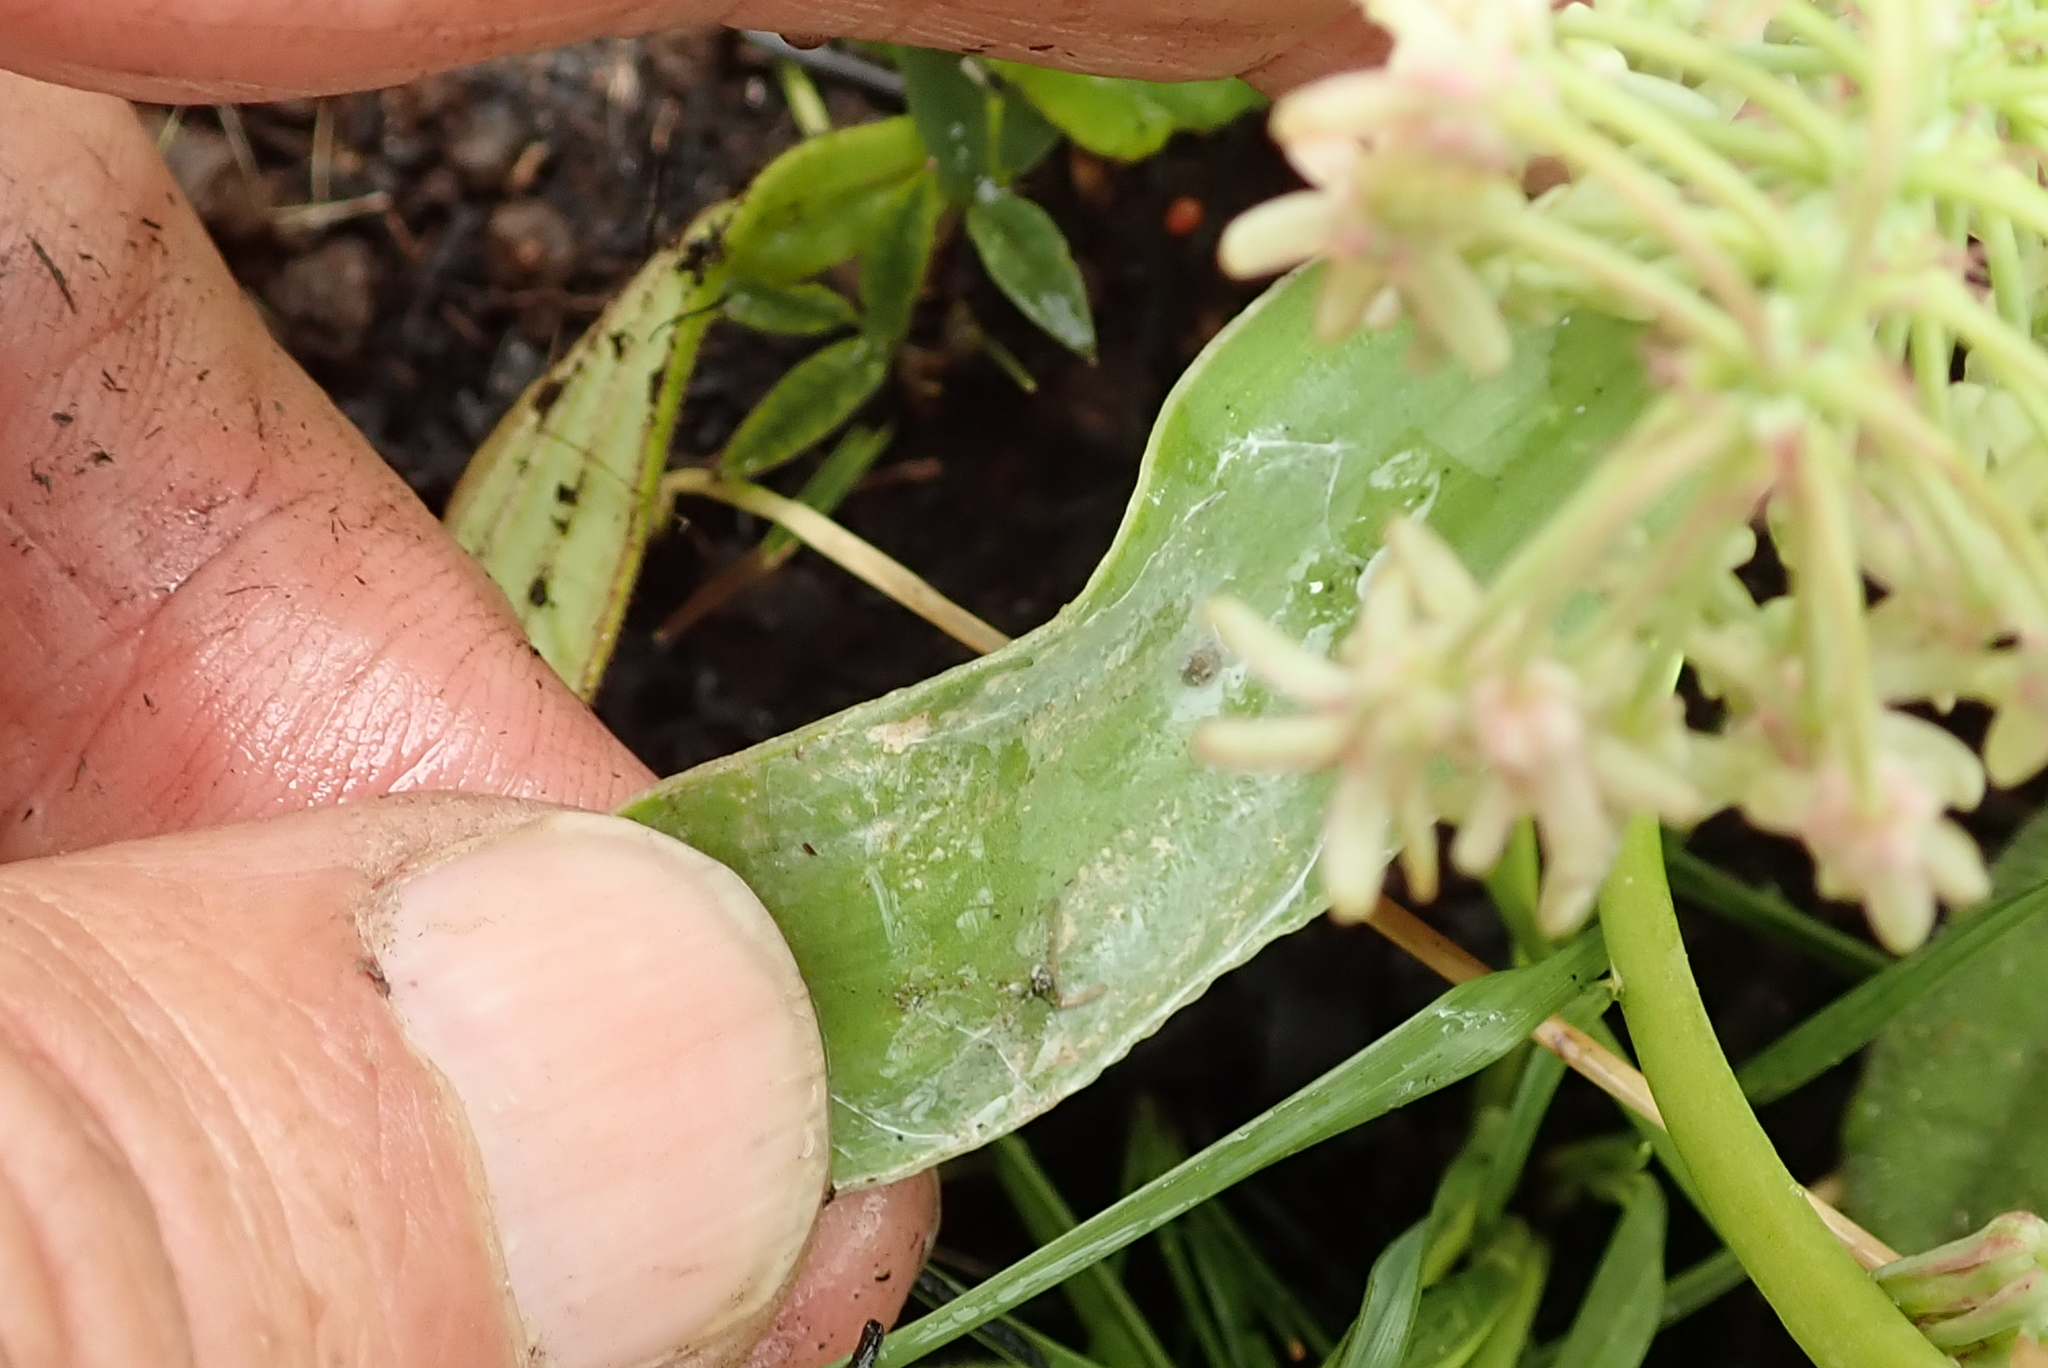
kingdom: Plantae
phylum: Tracheophyta
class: Liliopsida
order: Asparagales
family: Asparagaceae
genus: Ledebouria
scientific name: Ledebouria cooperi
